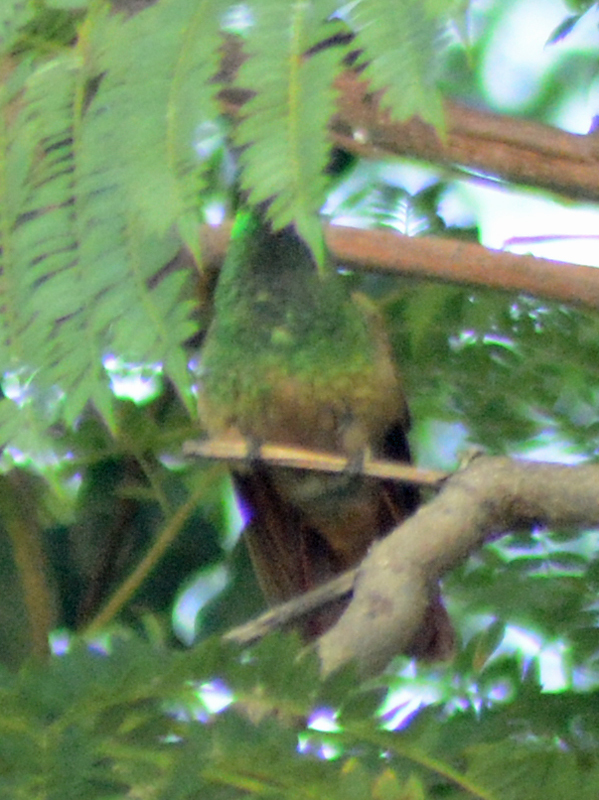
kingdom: Animalia
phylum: Chordata
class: Aves
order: Apodiformes
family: Trochilidae
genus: Saucerottia
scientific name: Saucerottia beryllina
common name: Berylline hummingbird
